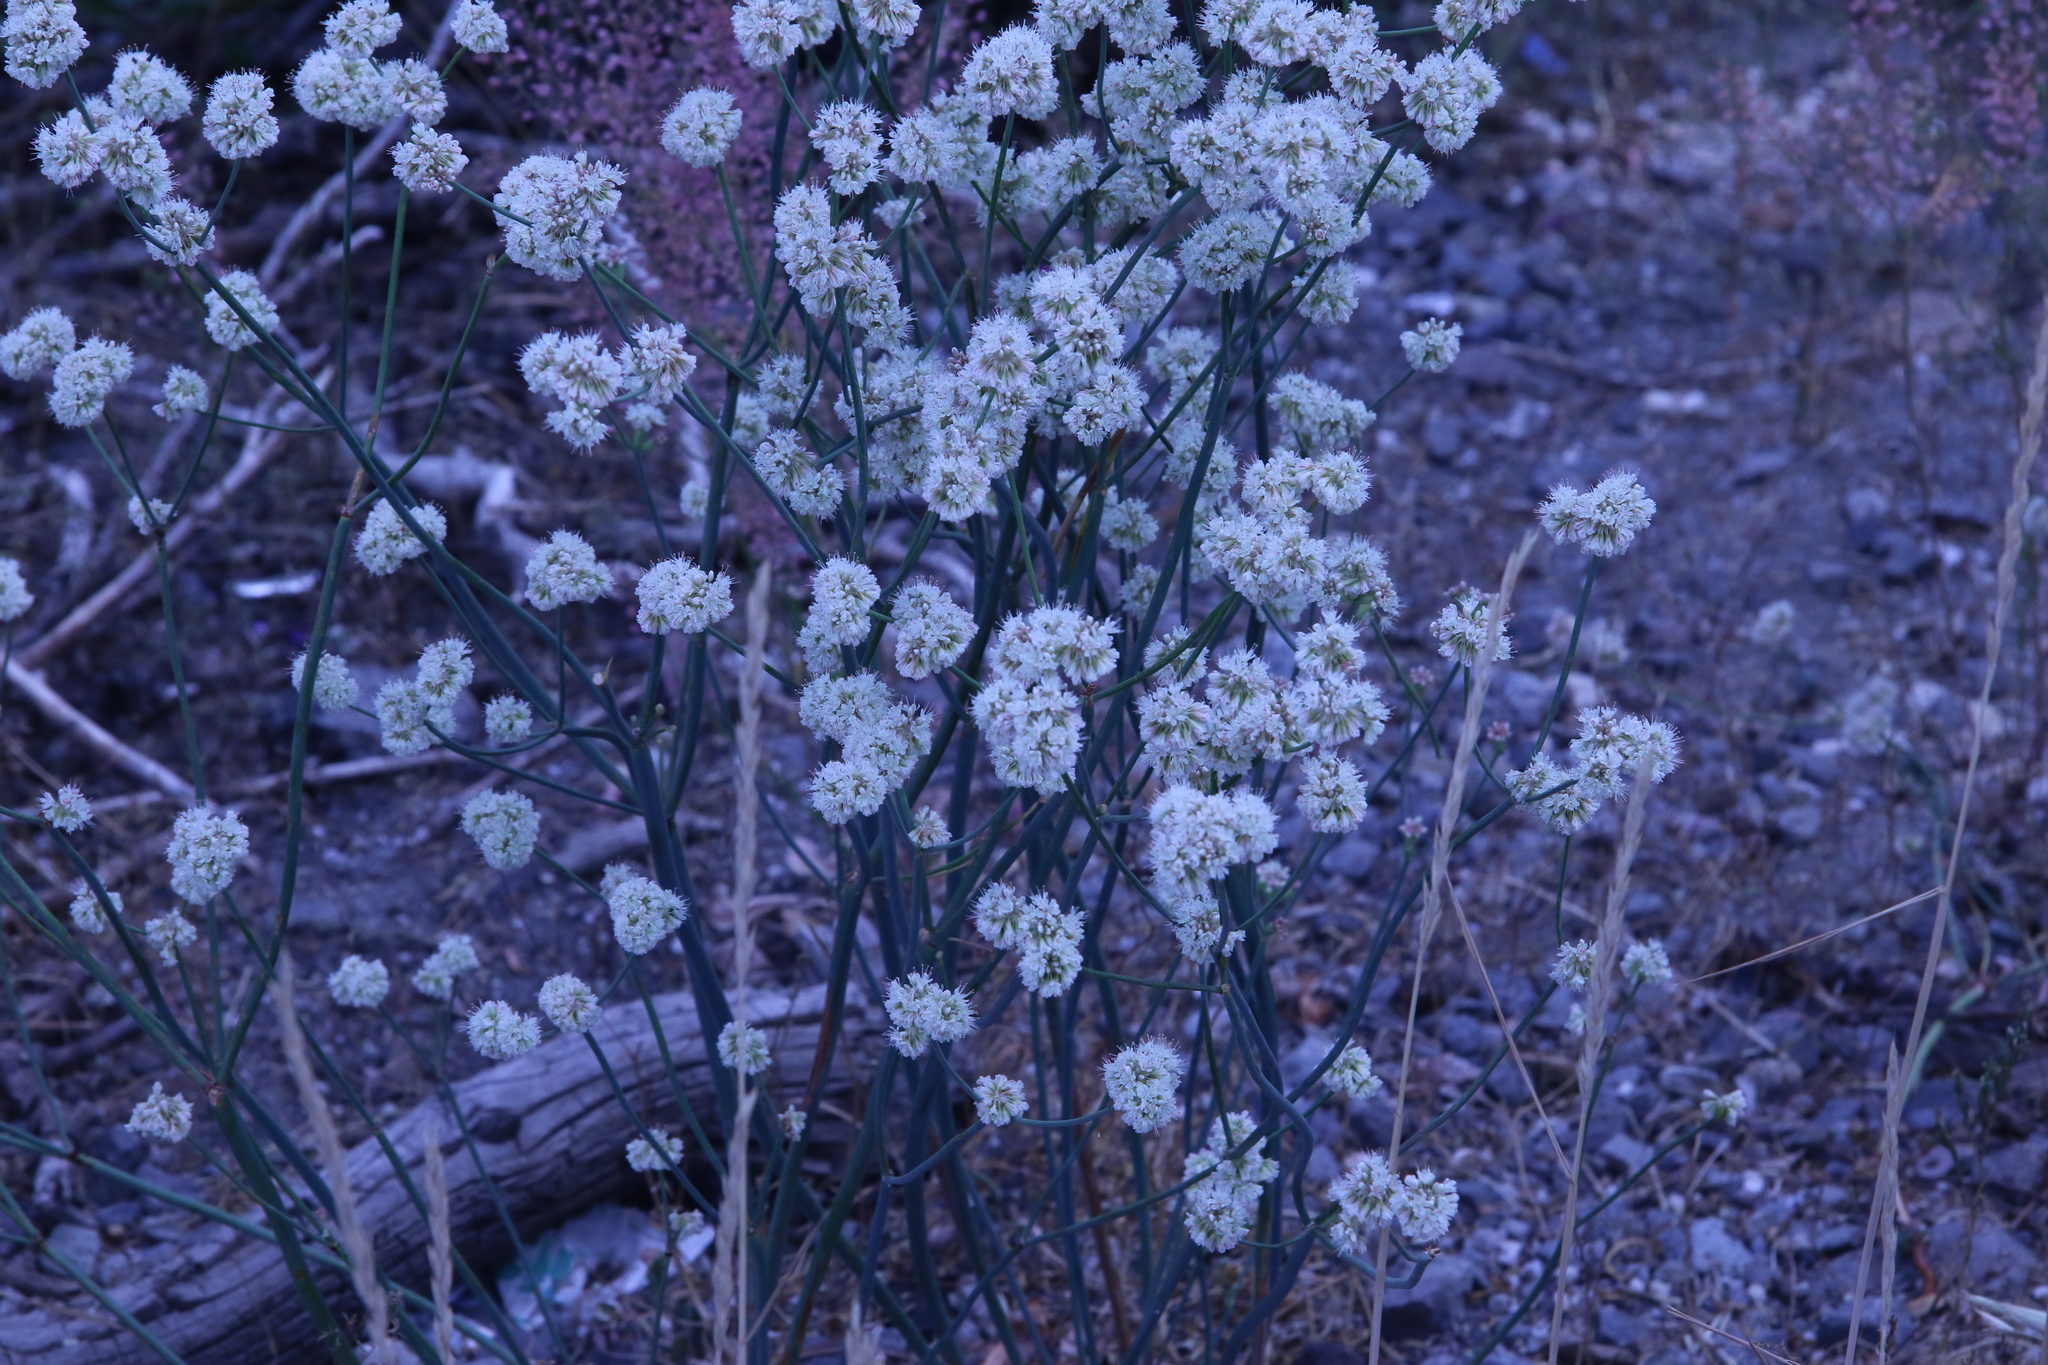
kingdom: Plantae
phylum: Tracheophyta
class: Magnoliopsida
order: Caryophyllales
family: Polygonaceae
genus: Eriogonum
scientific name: Eriogonum nudum
